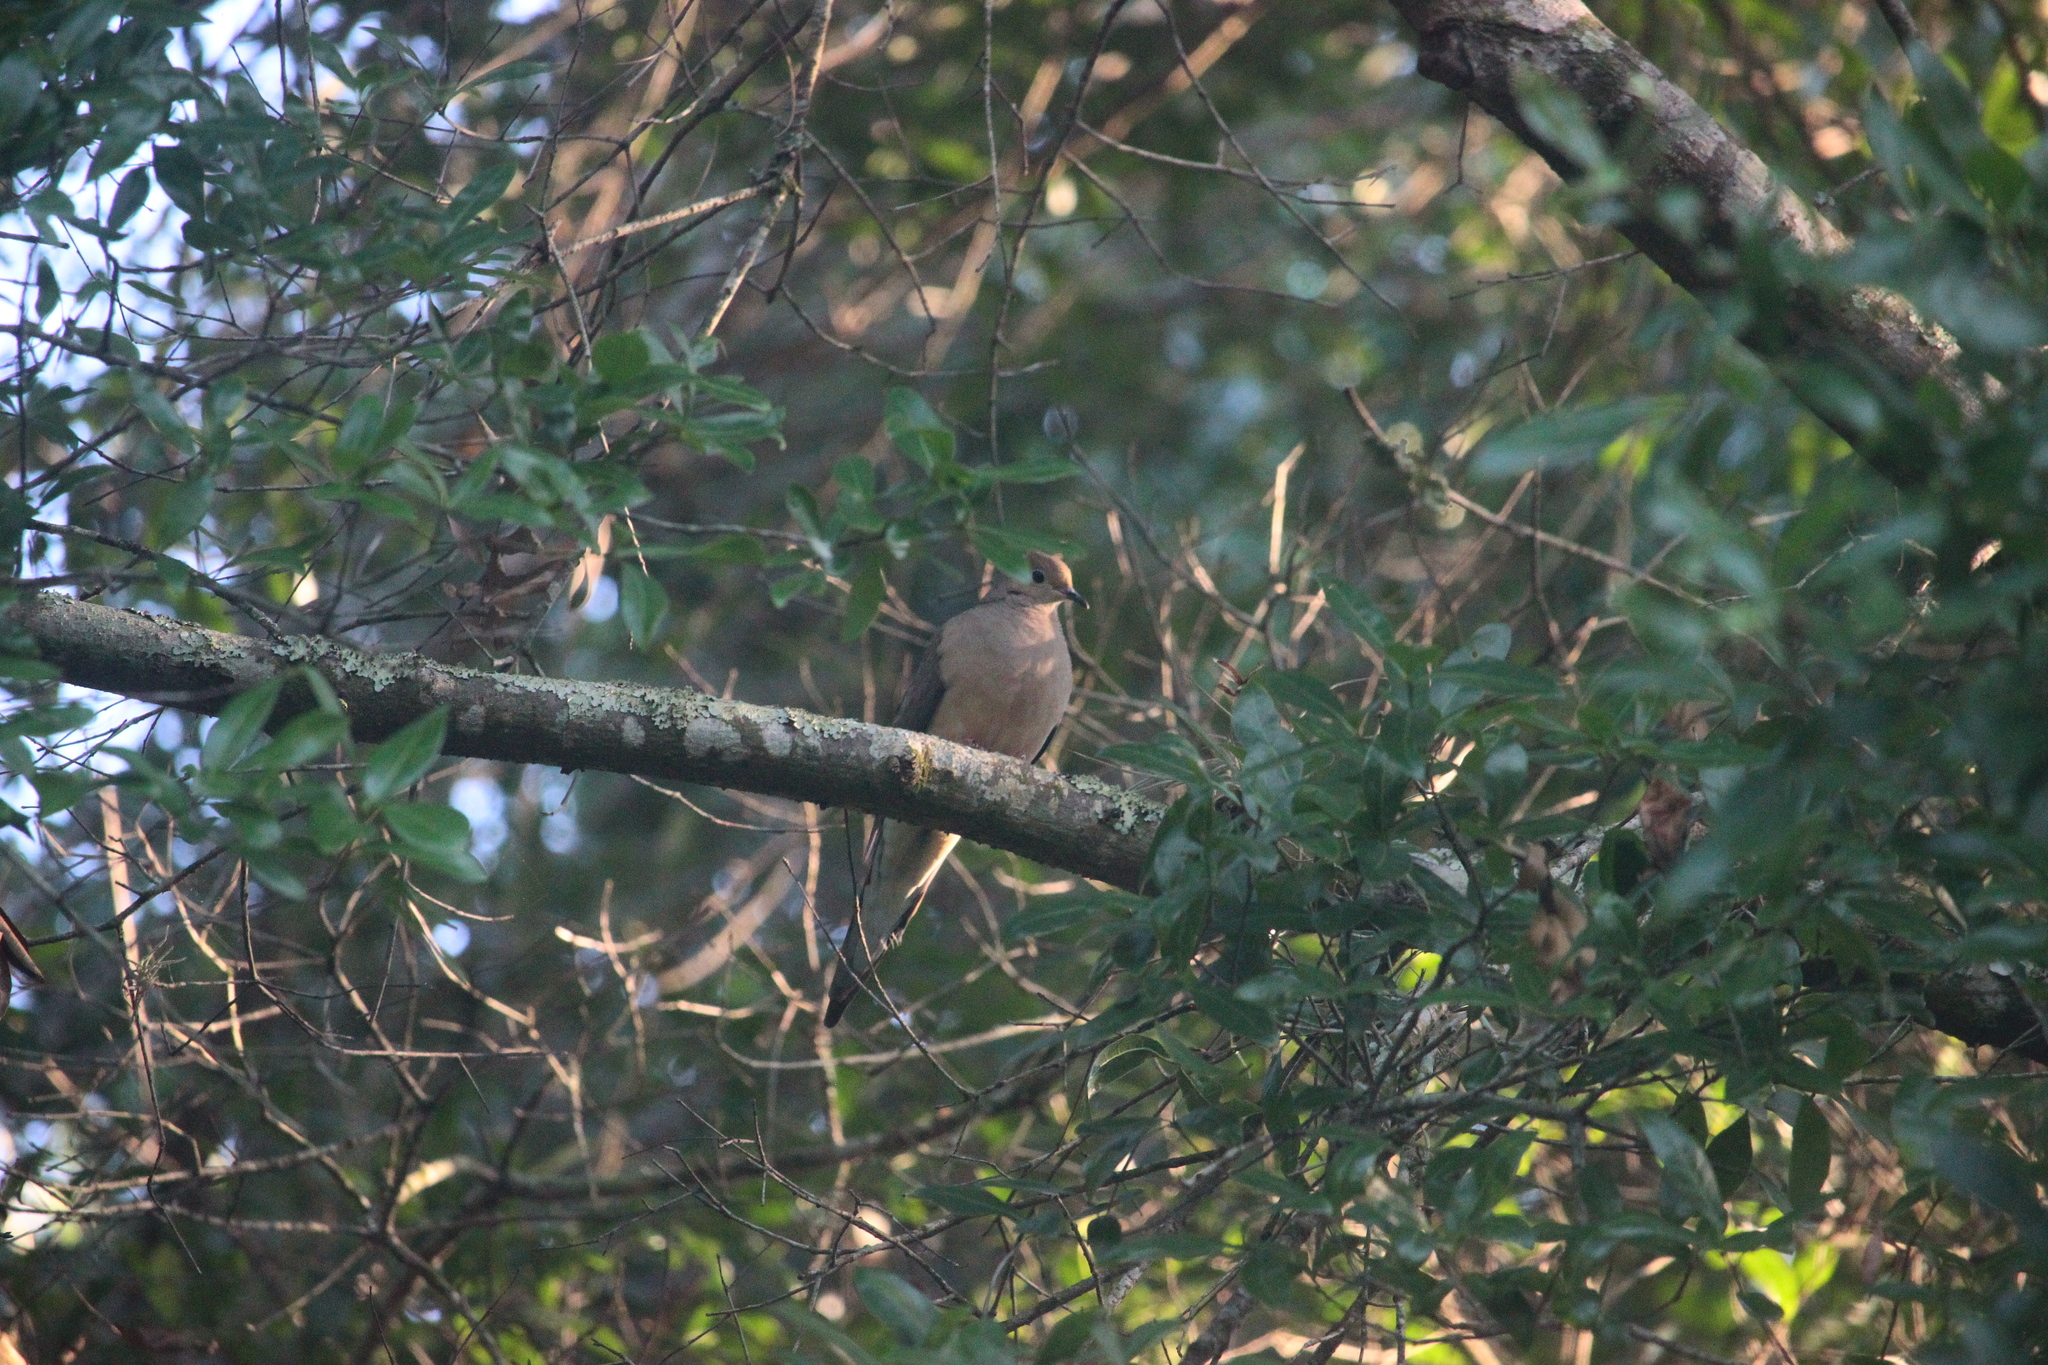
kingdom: Animalia
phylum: Chordata
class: Aves
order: Columbiformes
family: Columbidae
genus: Zenaida
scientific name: Zenaida macroura
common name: Mourning dove
